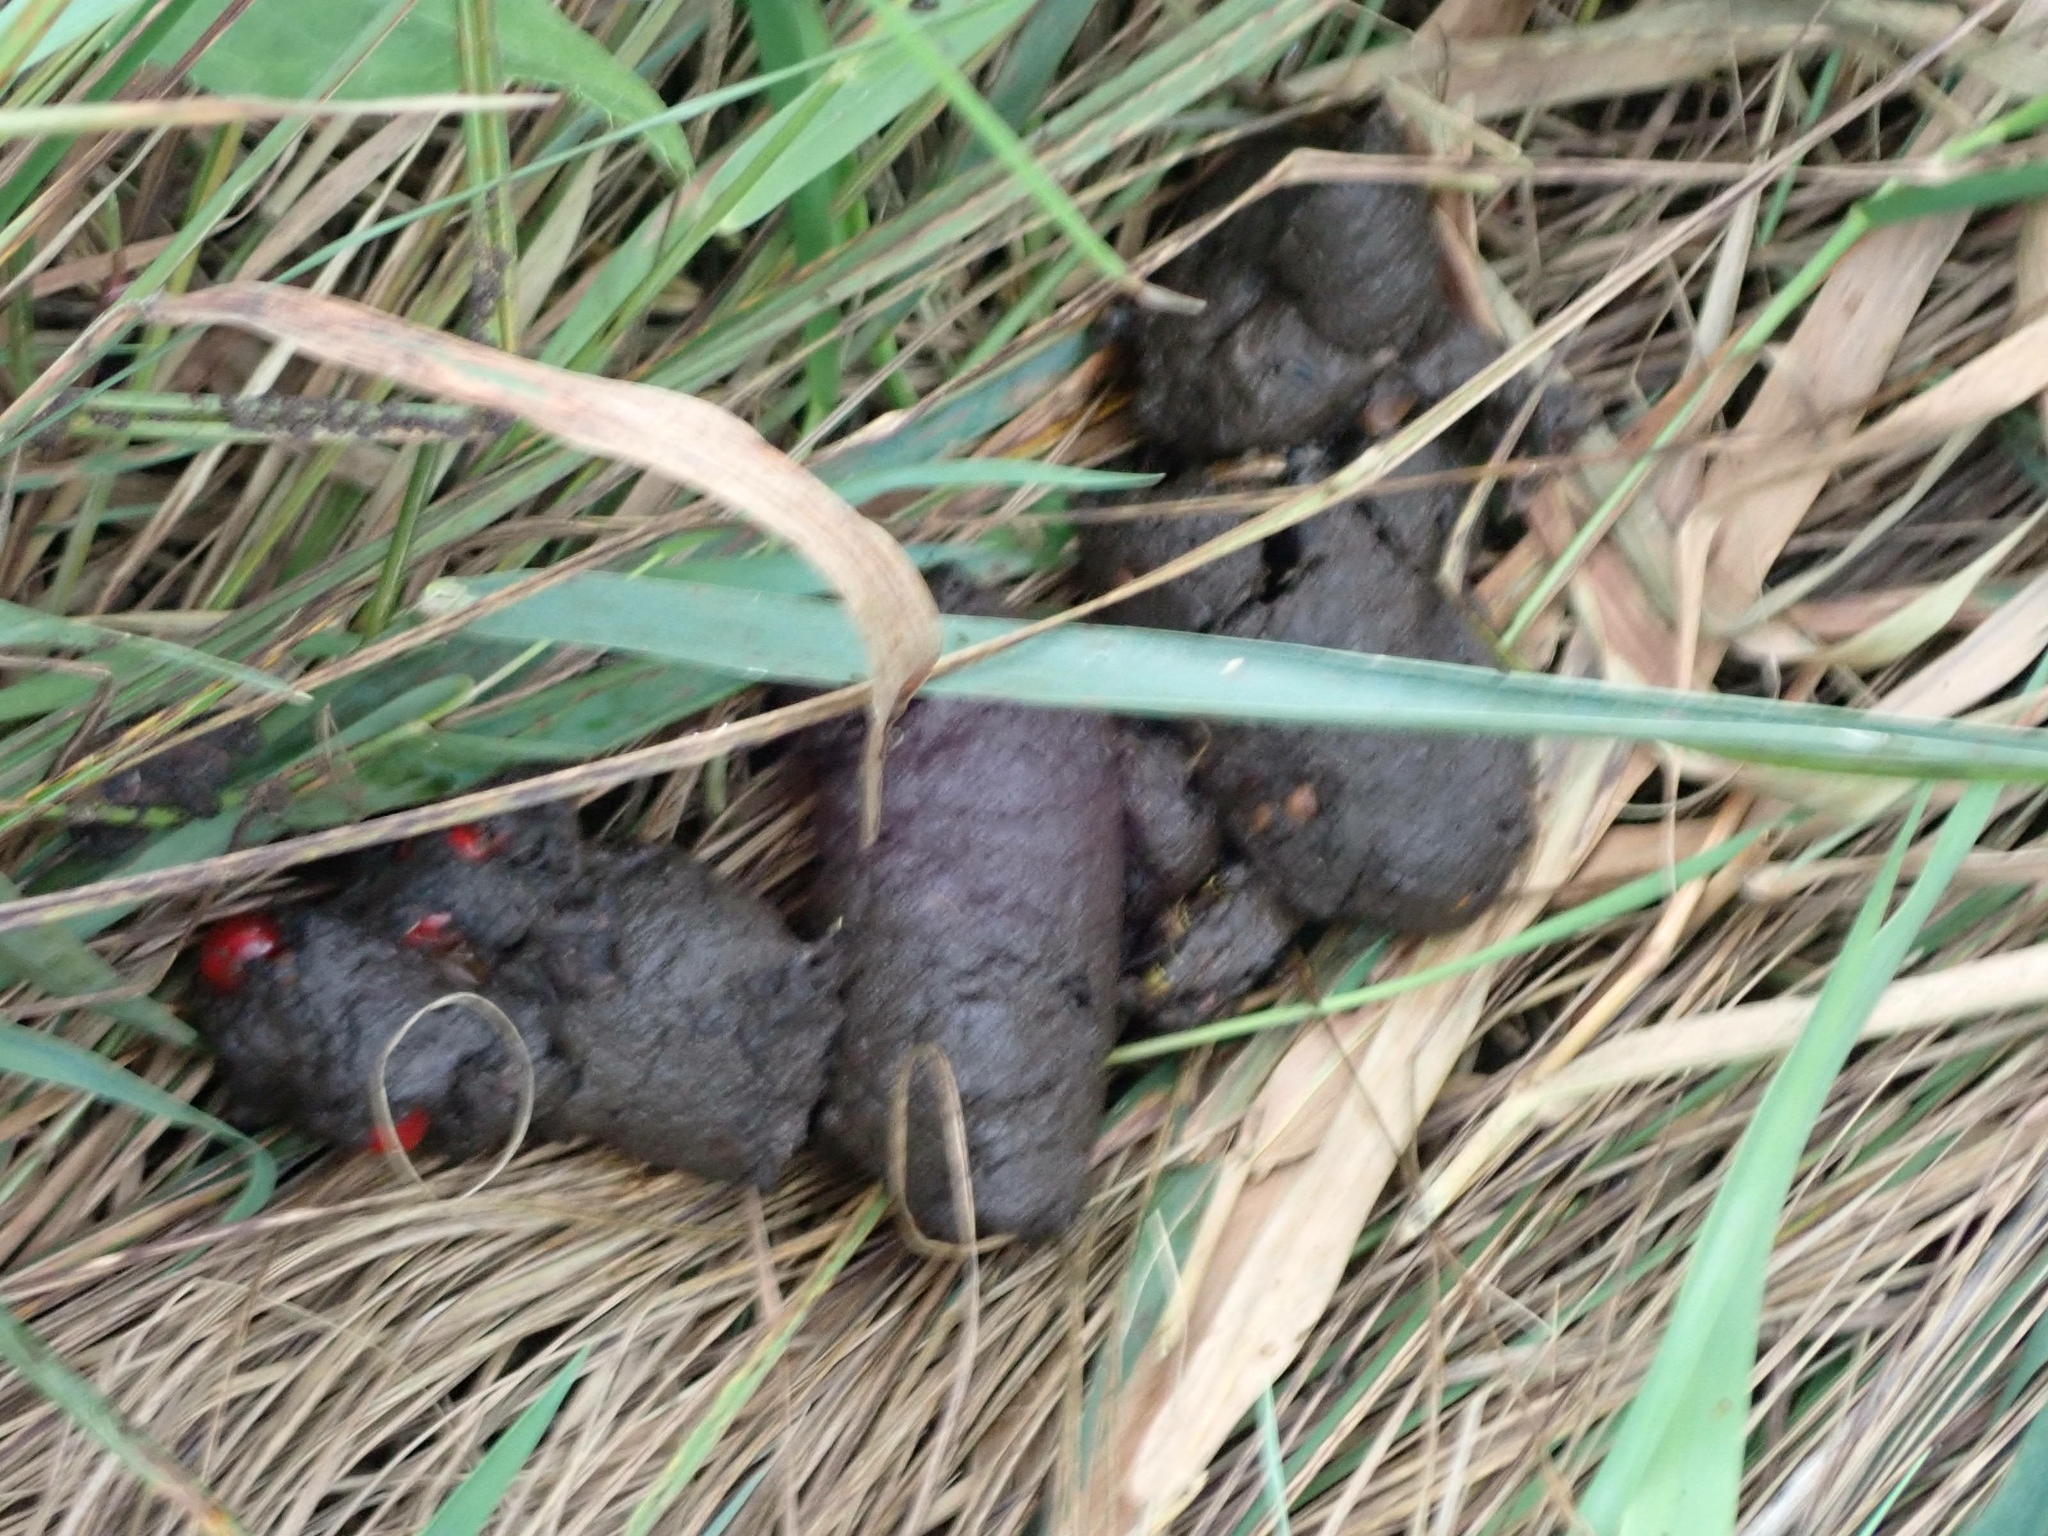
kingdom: Animalia
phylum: Chordata
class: Mammalia
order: Carnivora
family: Ursidae
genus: Ursus
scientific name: Ursus americanus
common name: American black bear
